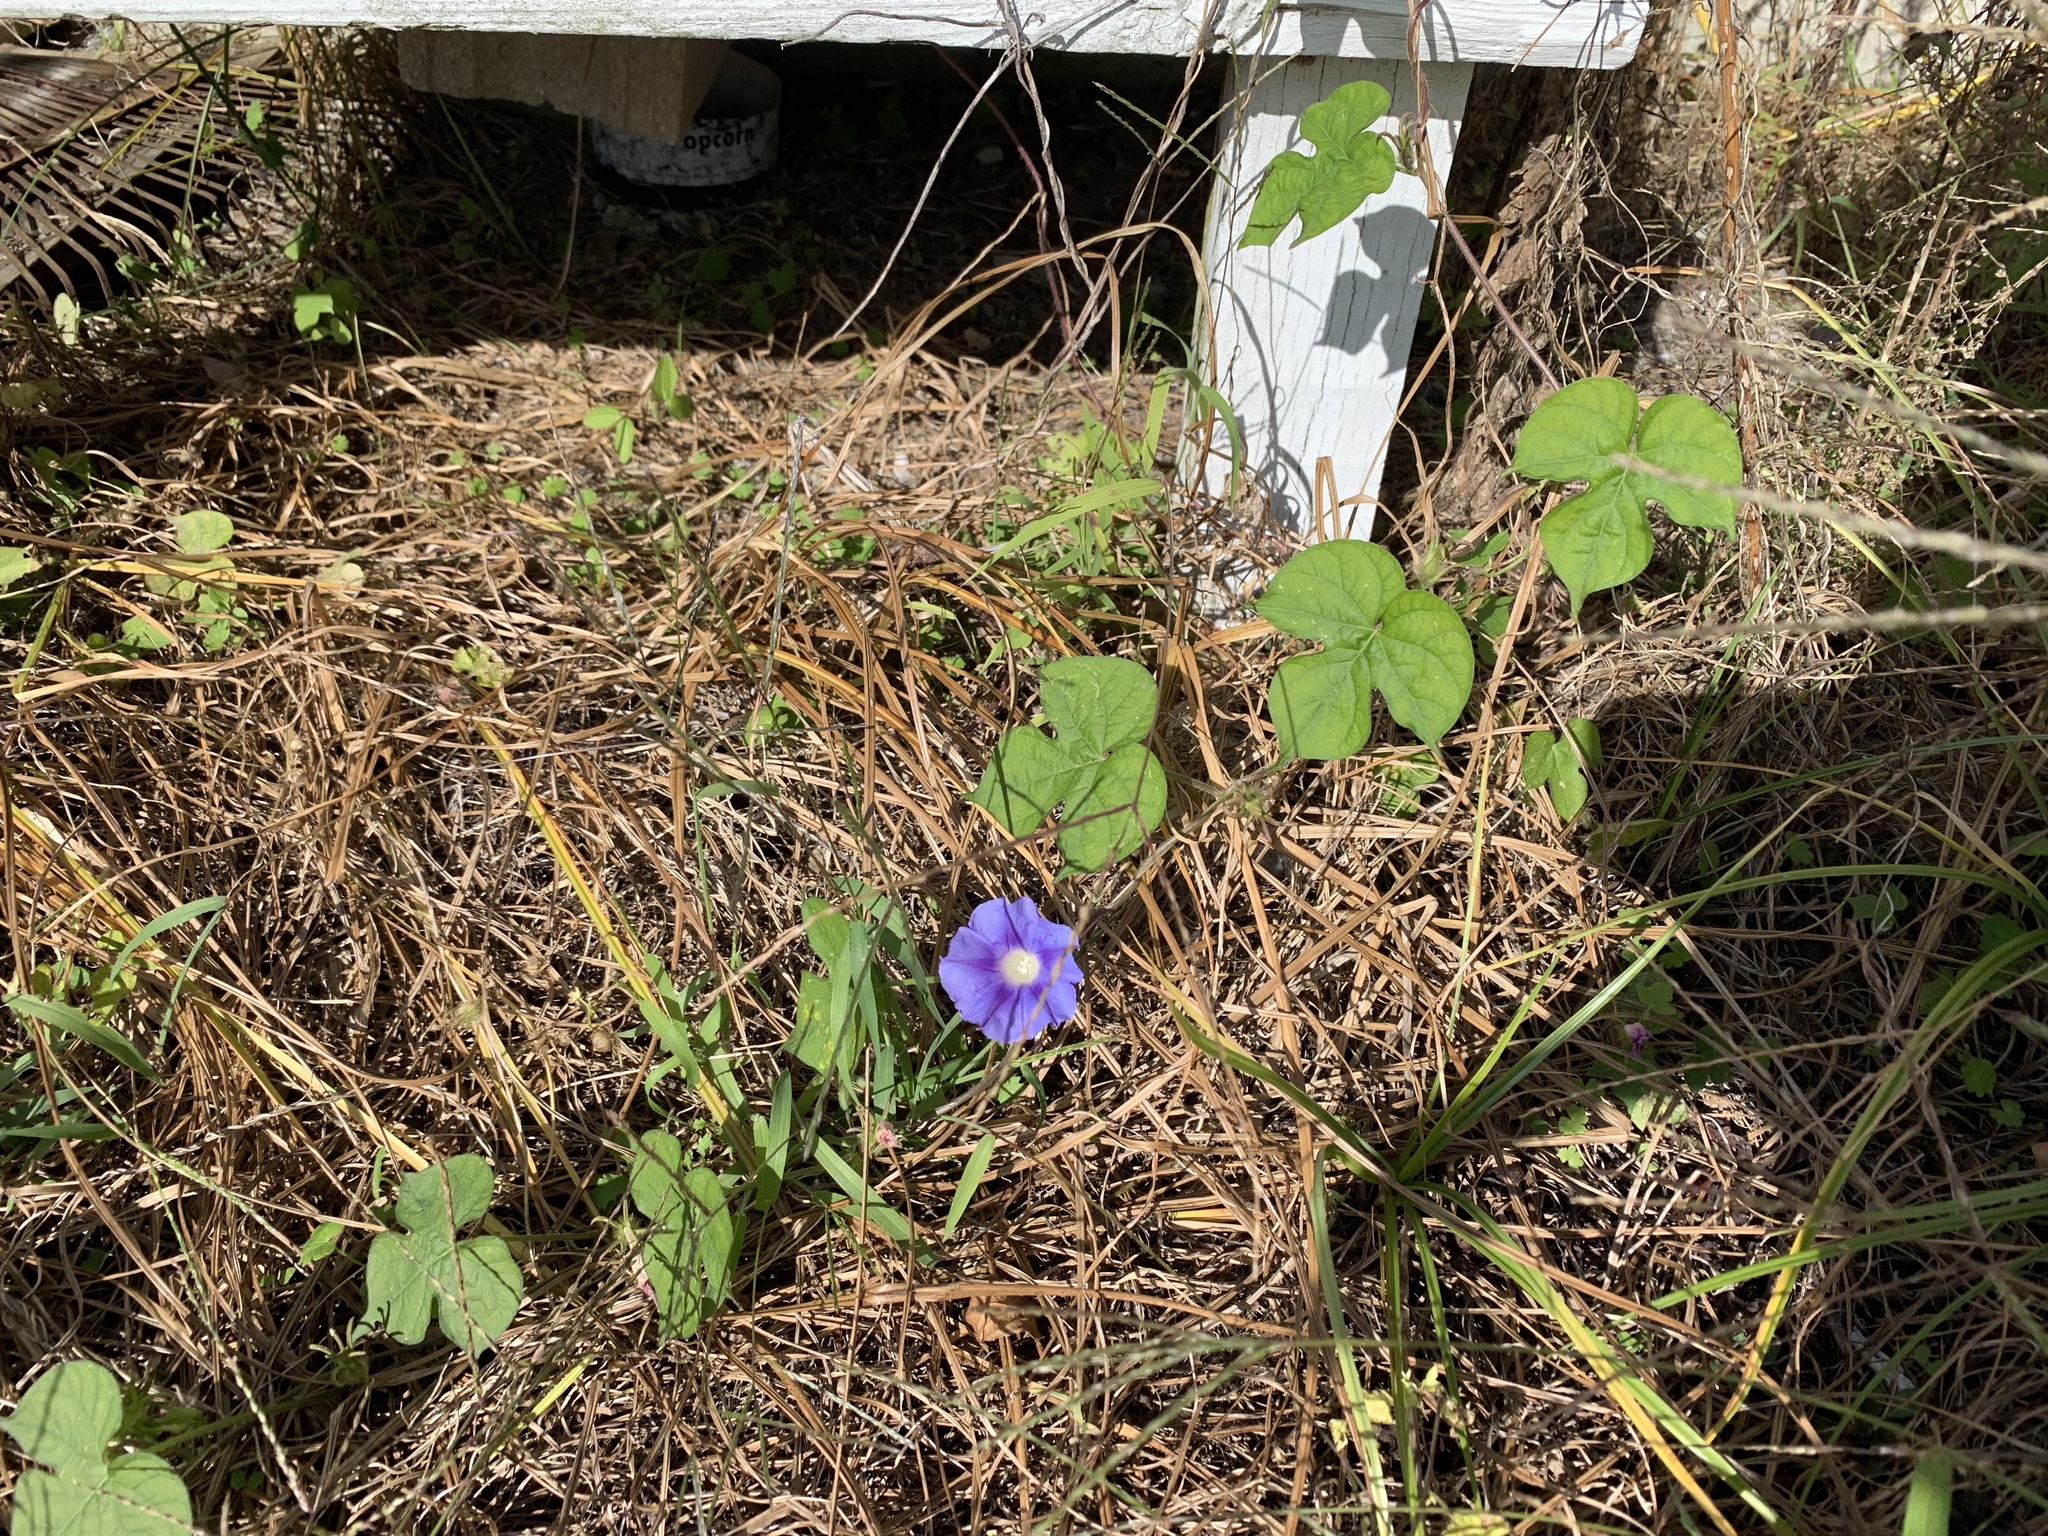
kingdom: Plantae
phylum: Tracheophyta
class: Magnoliopsida
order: Solanales
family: Convolvulaceae
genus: Ipomoea
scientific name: Ipomoea hederacea
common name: Ivy-leaved morning-glory
